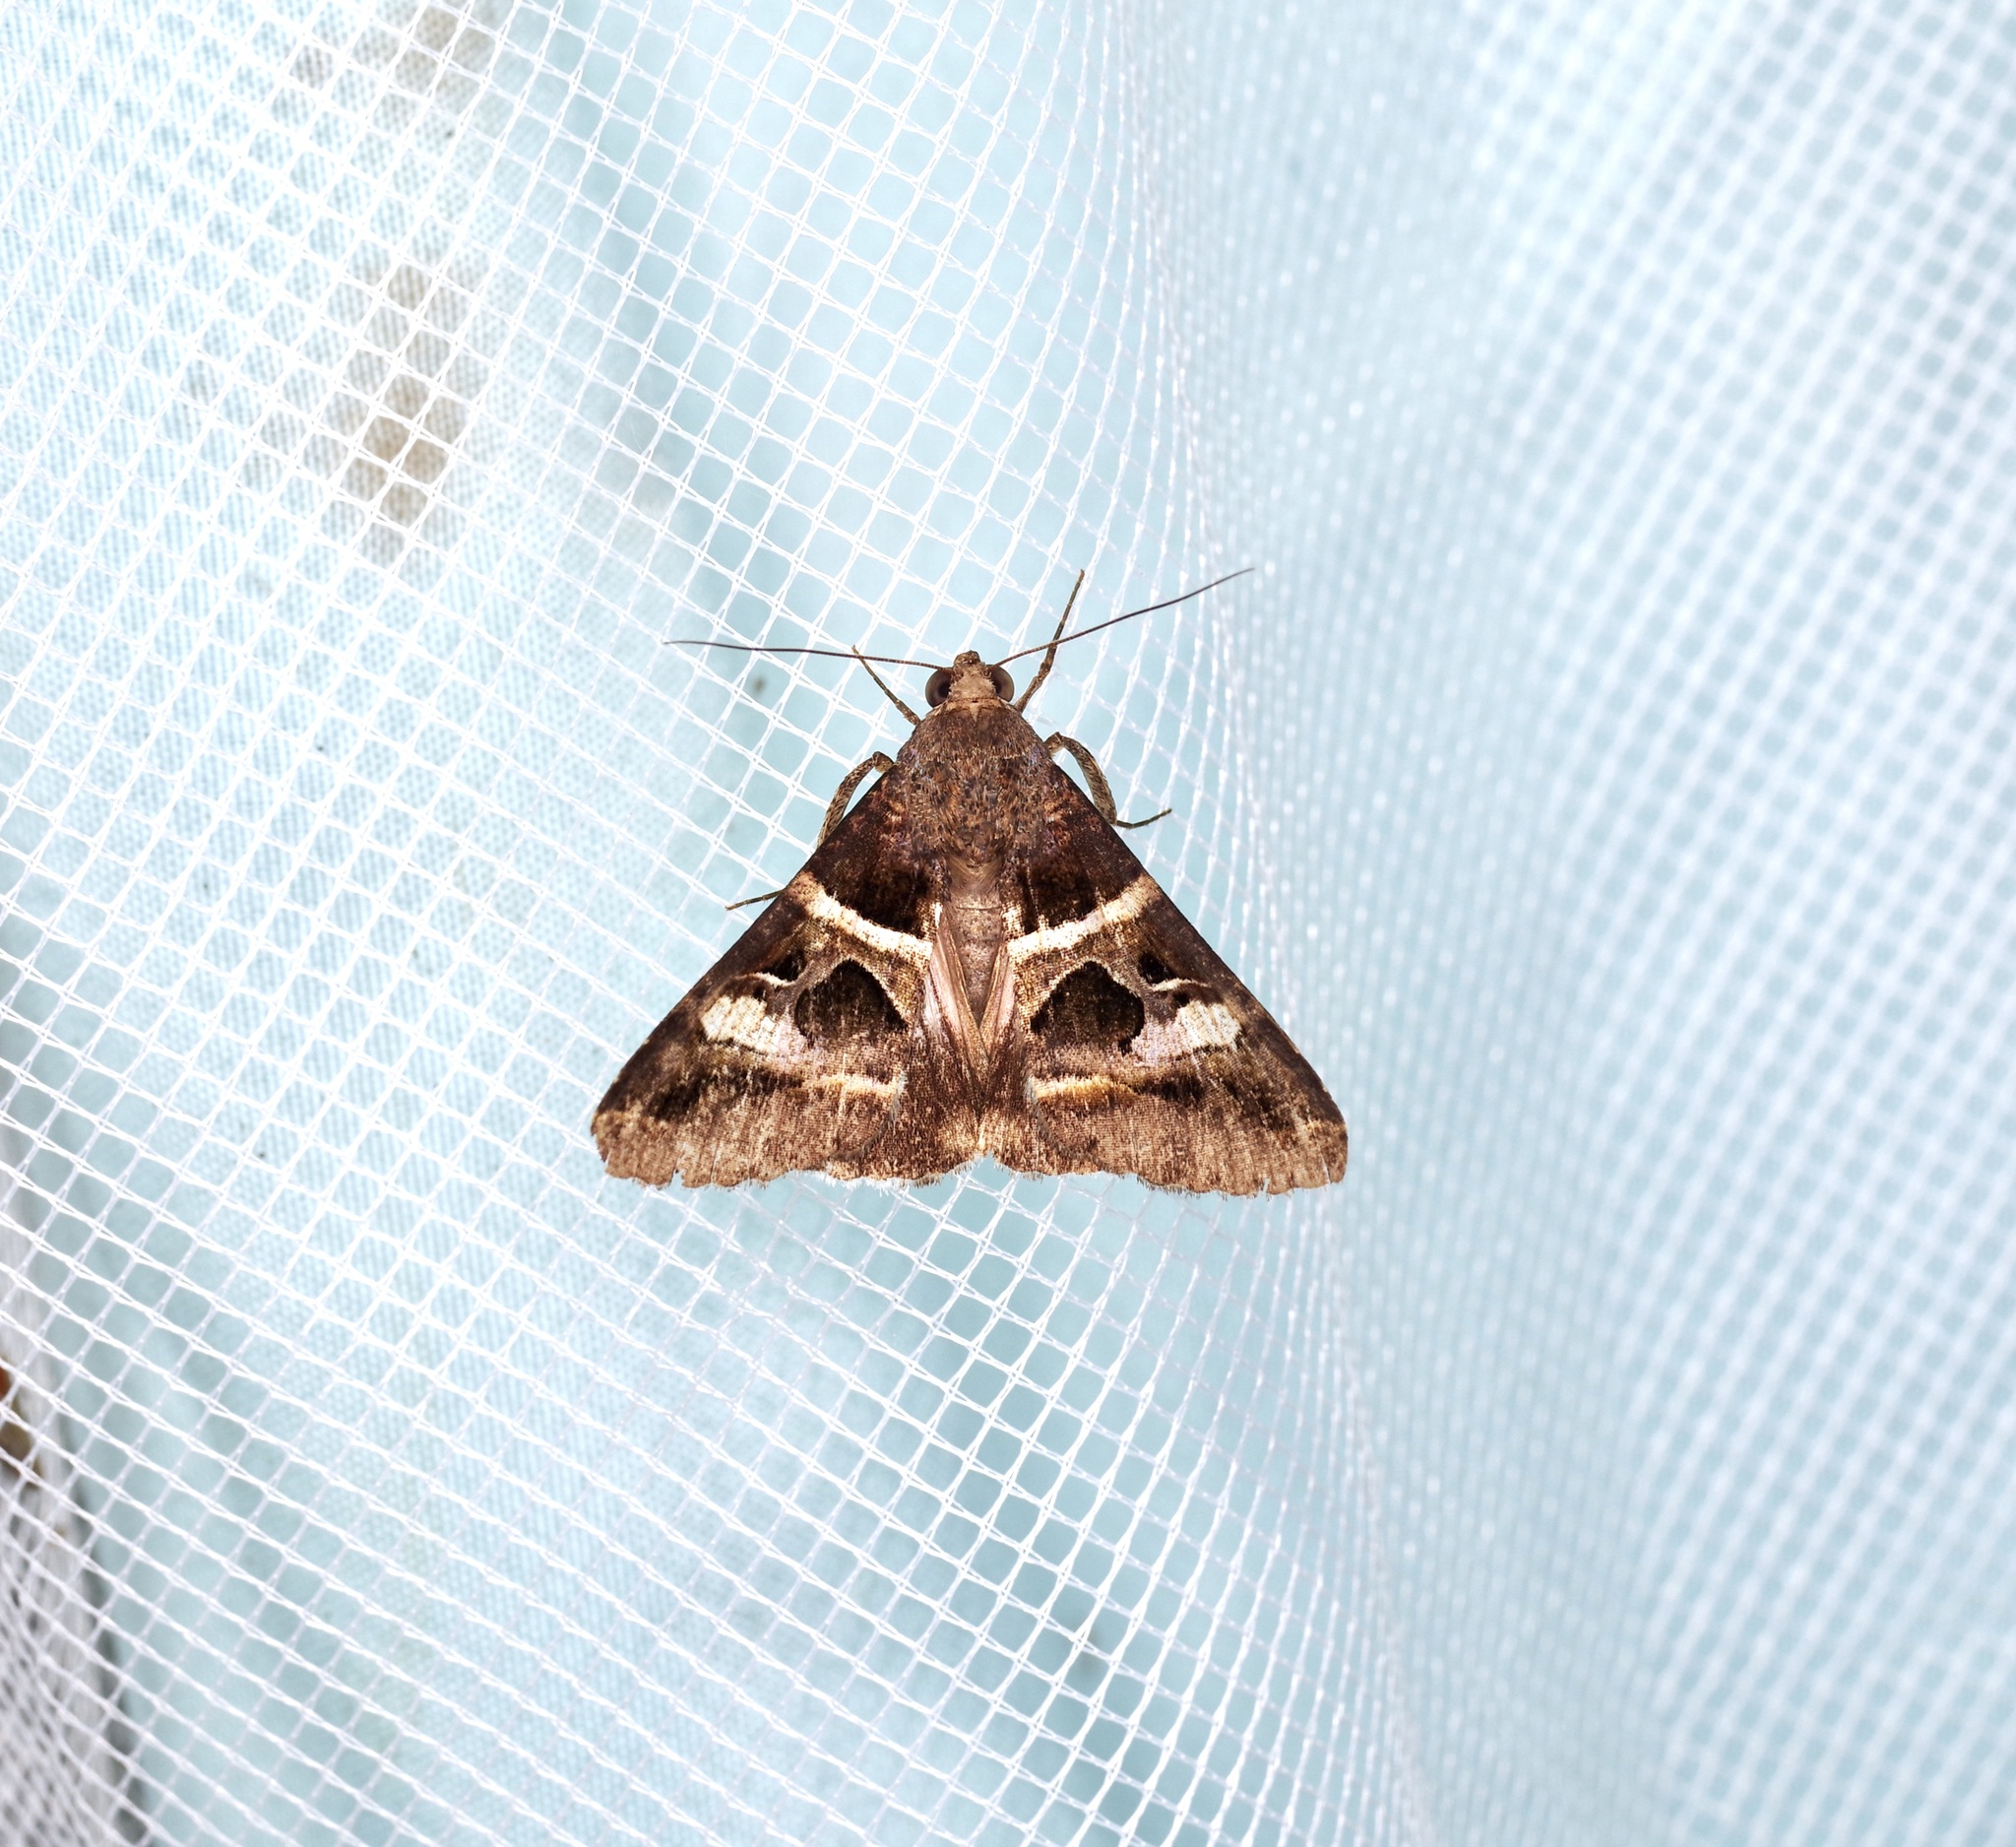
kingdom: Animalia
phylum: Arthropoda
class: Insecta
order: Lepidoptera
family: Erebidae
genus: Melipotis
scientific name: Melipotis perpendicularis
